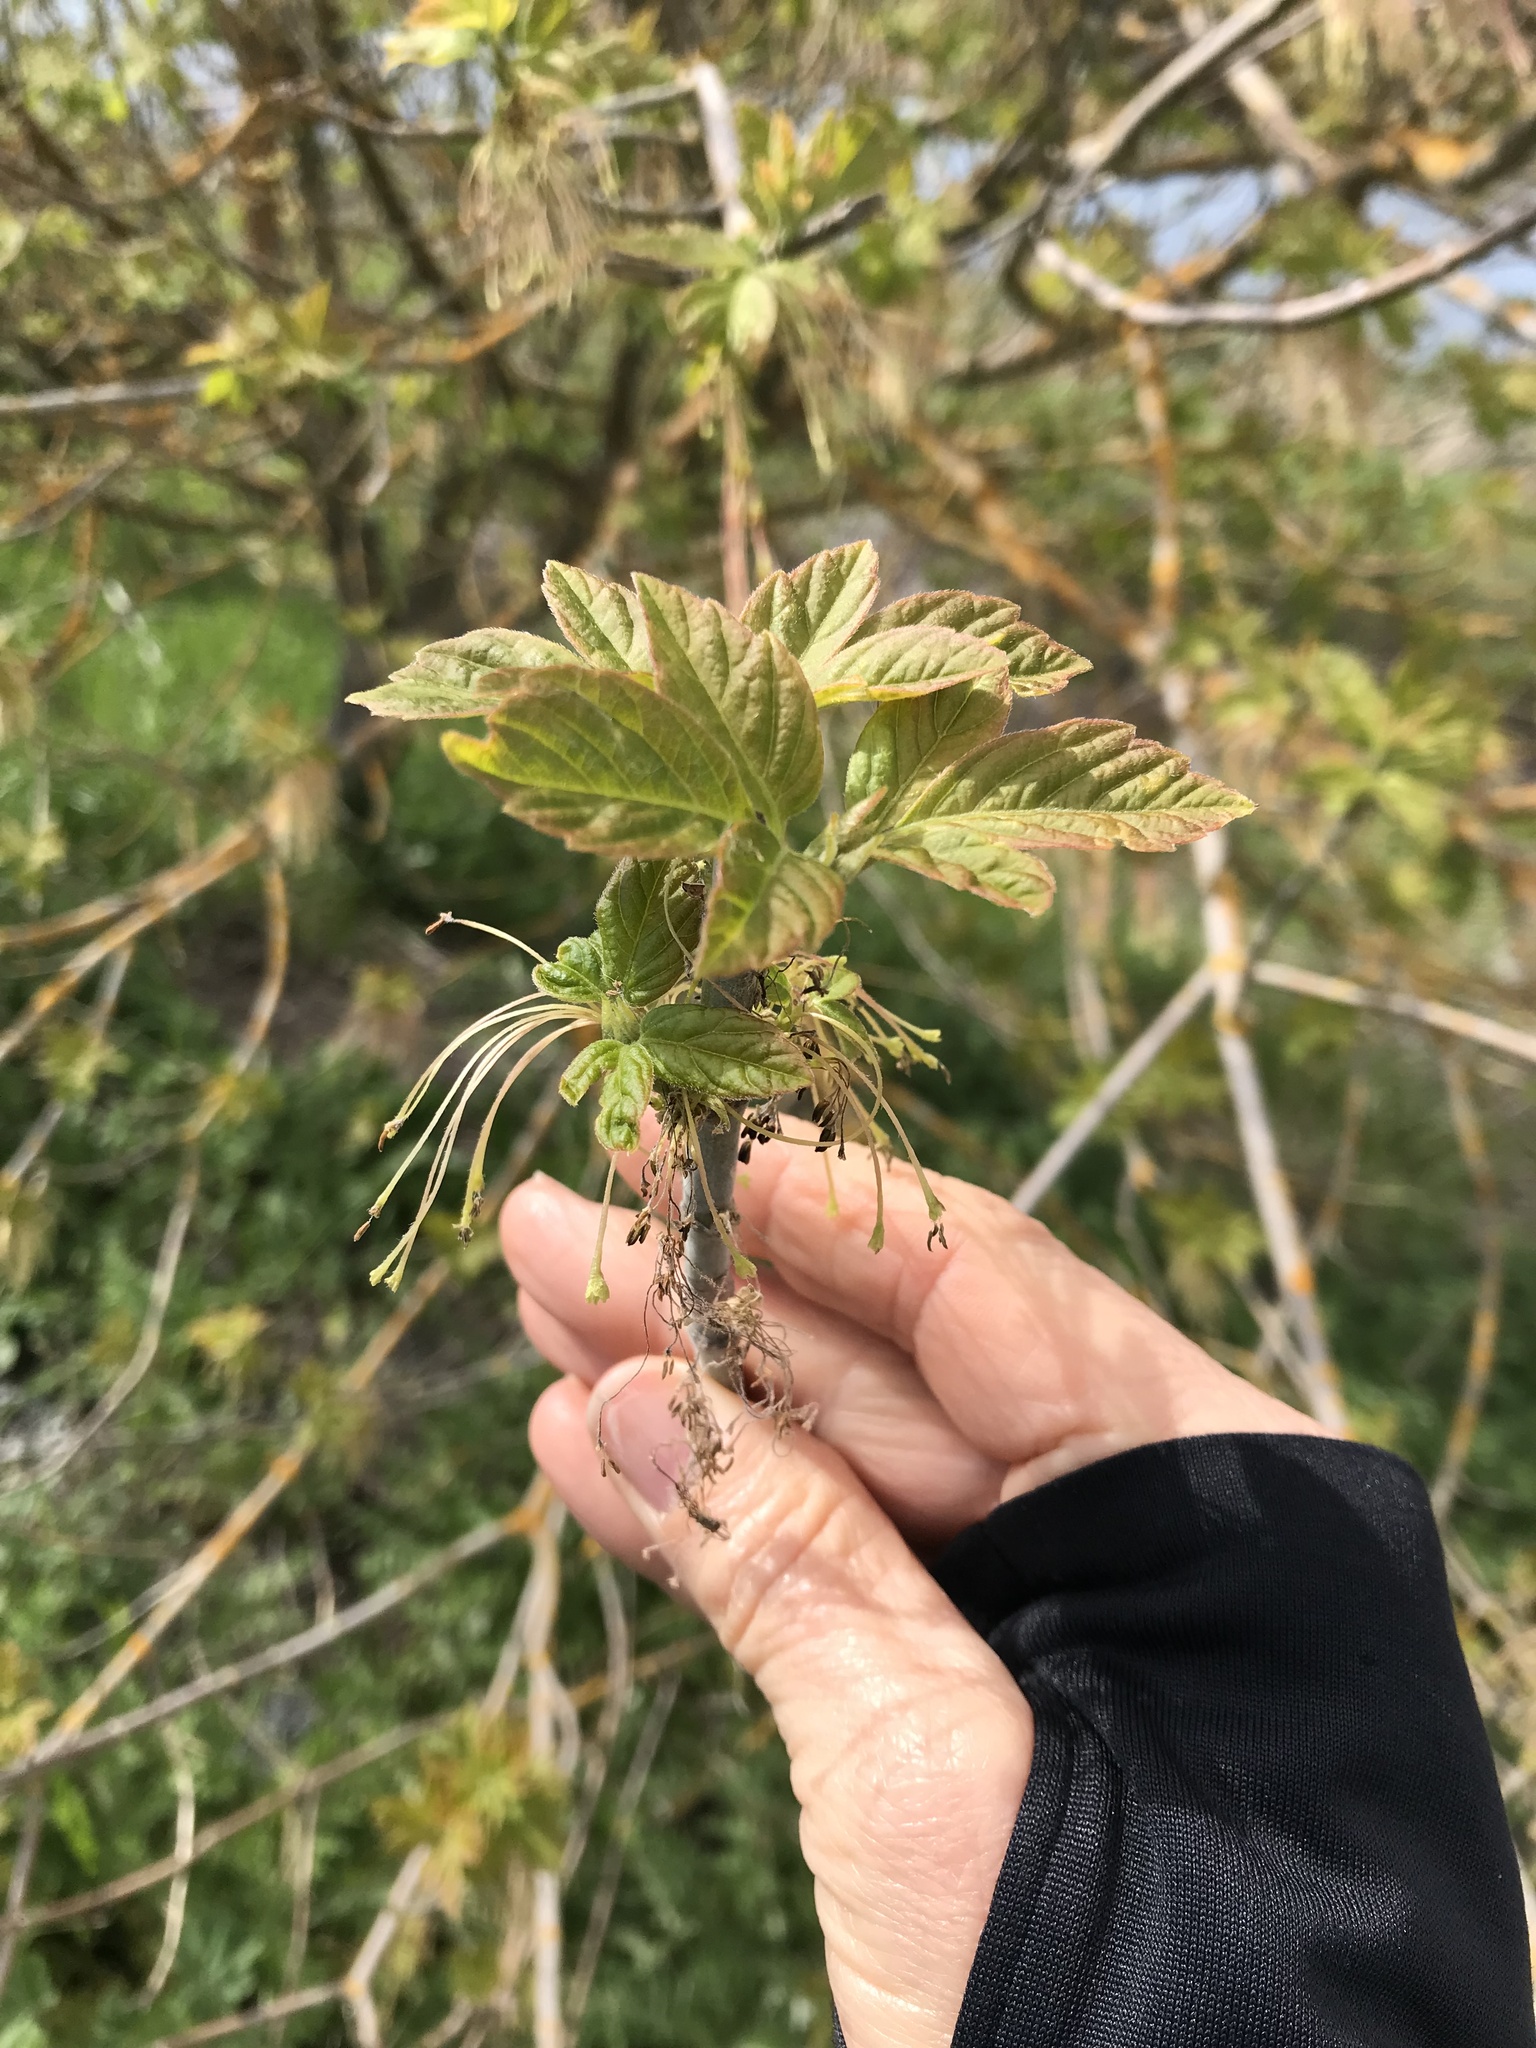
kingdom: Plantae
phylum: Tracheophyta
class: Magnoliopsida
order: Sapindales
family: Sapindaceae
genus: Acer
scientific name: Acer negundo
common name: Ashleaf maple
